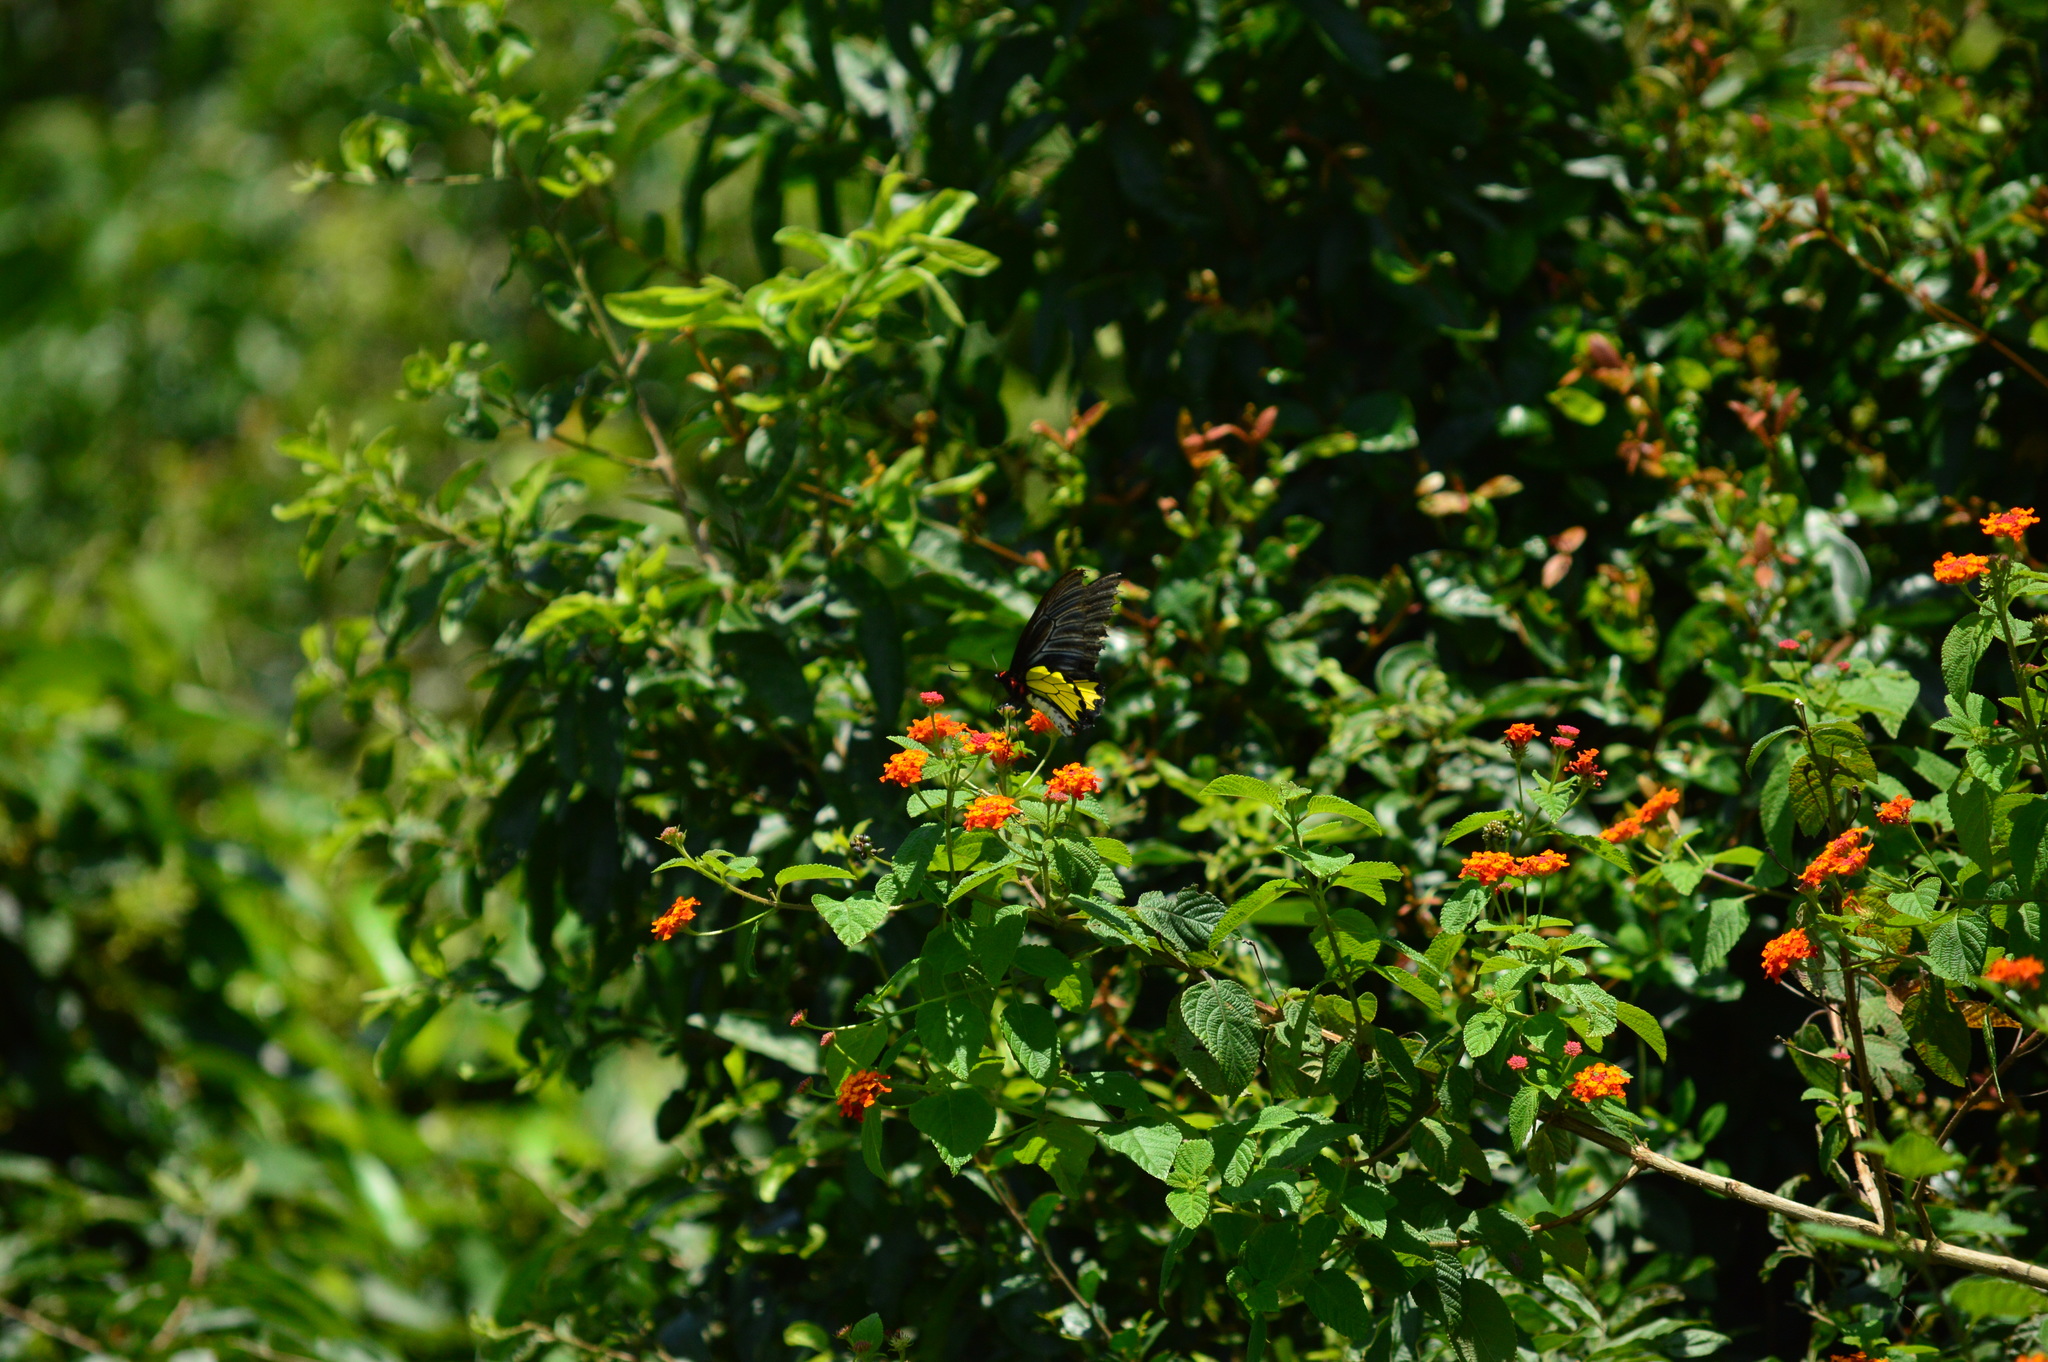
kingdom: Plantae
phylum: Tracheophyta
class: Magnoliopsida
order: Lamiales
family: Verbenaceae
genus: Lantana
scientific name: Lantana camara
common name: Lantana
